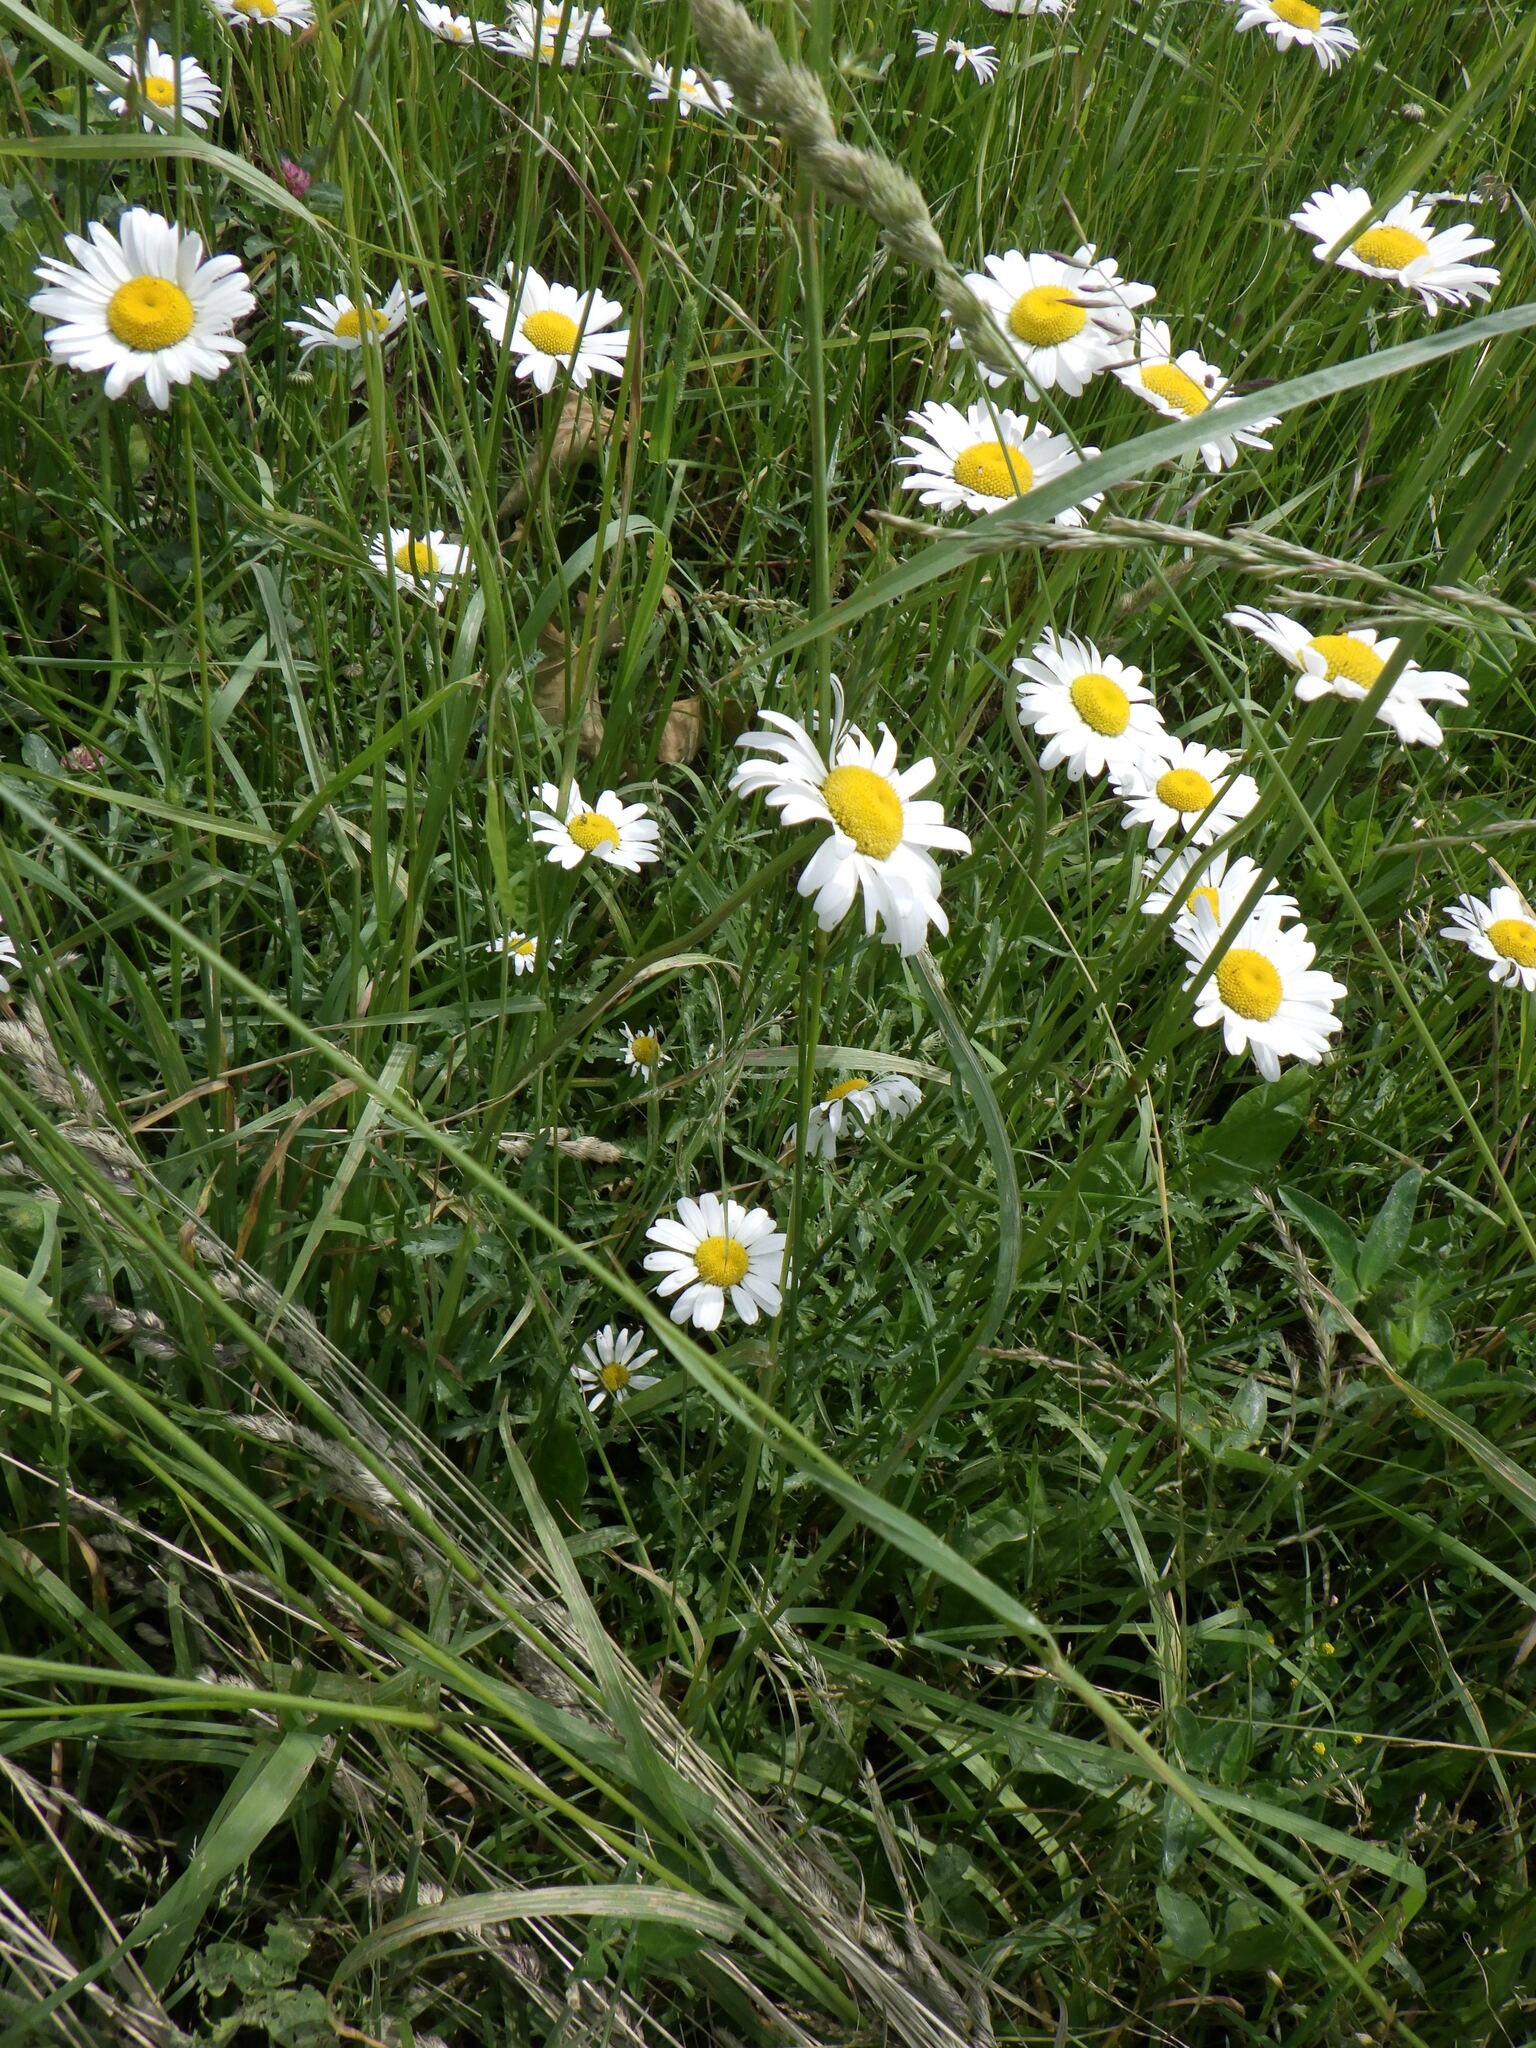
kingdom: Plantae
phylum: Tracheophyta
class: Magnoliopsida
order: Asterales
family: Asteraceae
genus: Leucanthemum
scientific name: Leucanthemum vulgare
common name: Oxeye daisy
